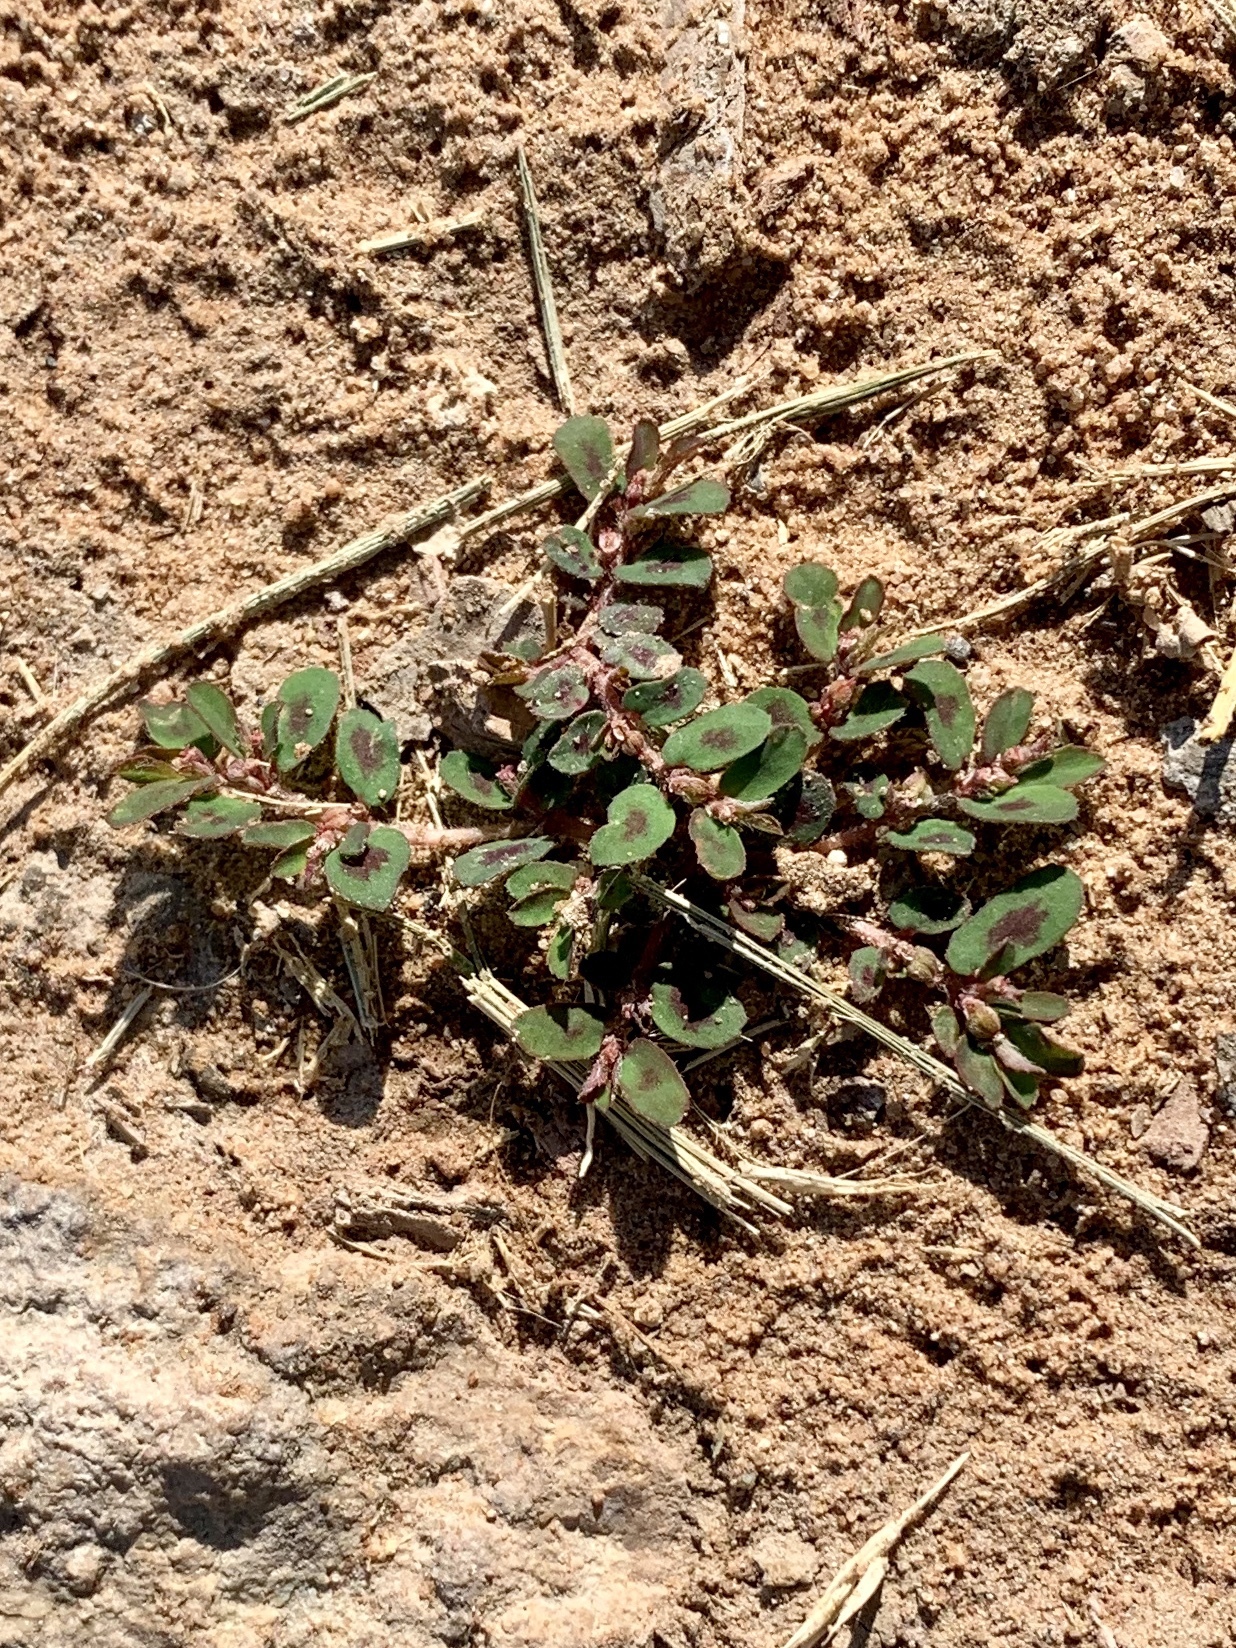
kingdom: Plantae
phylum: Tracheophyta
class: Magnoliopsida
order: Malpighiales
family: Euphorbiaceae
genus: Euphorbia
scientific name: Euphorbia maculata
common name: Spotted spurge
